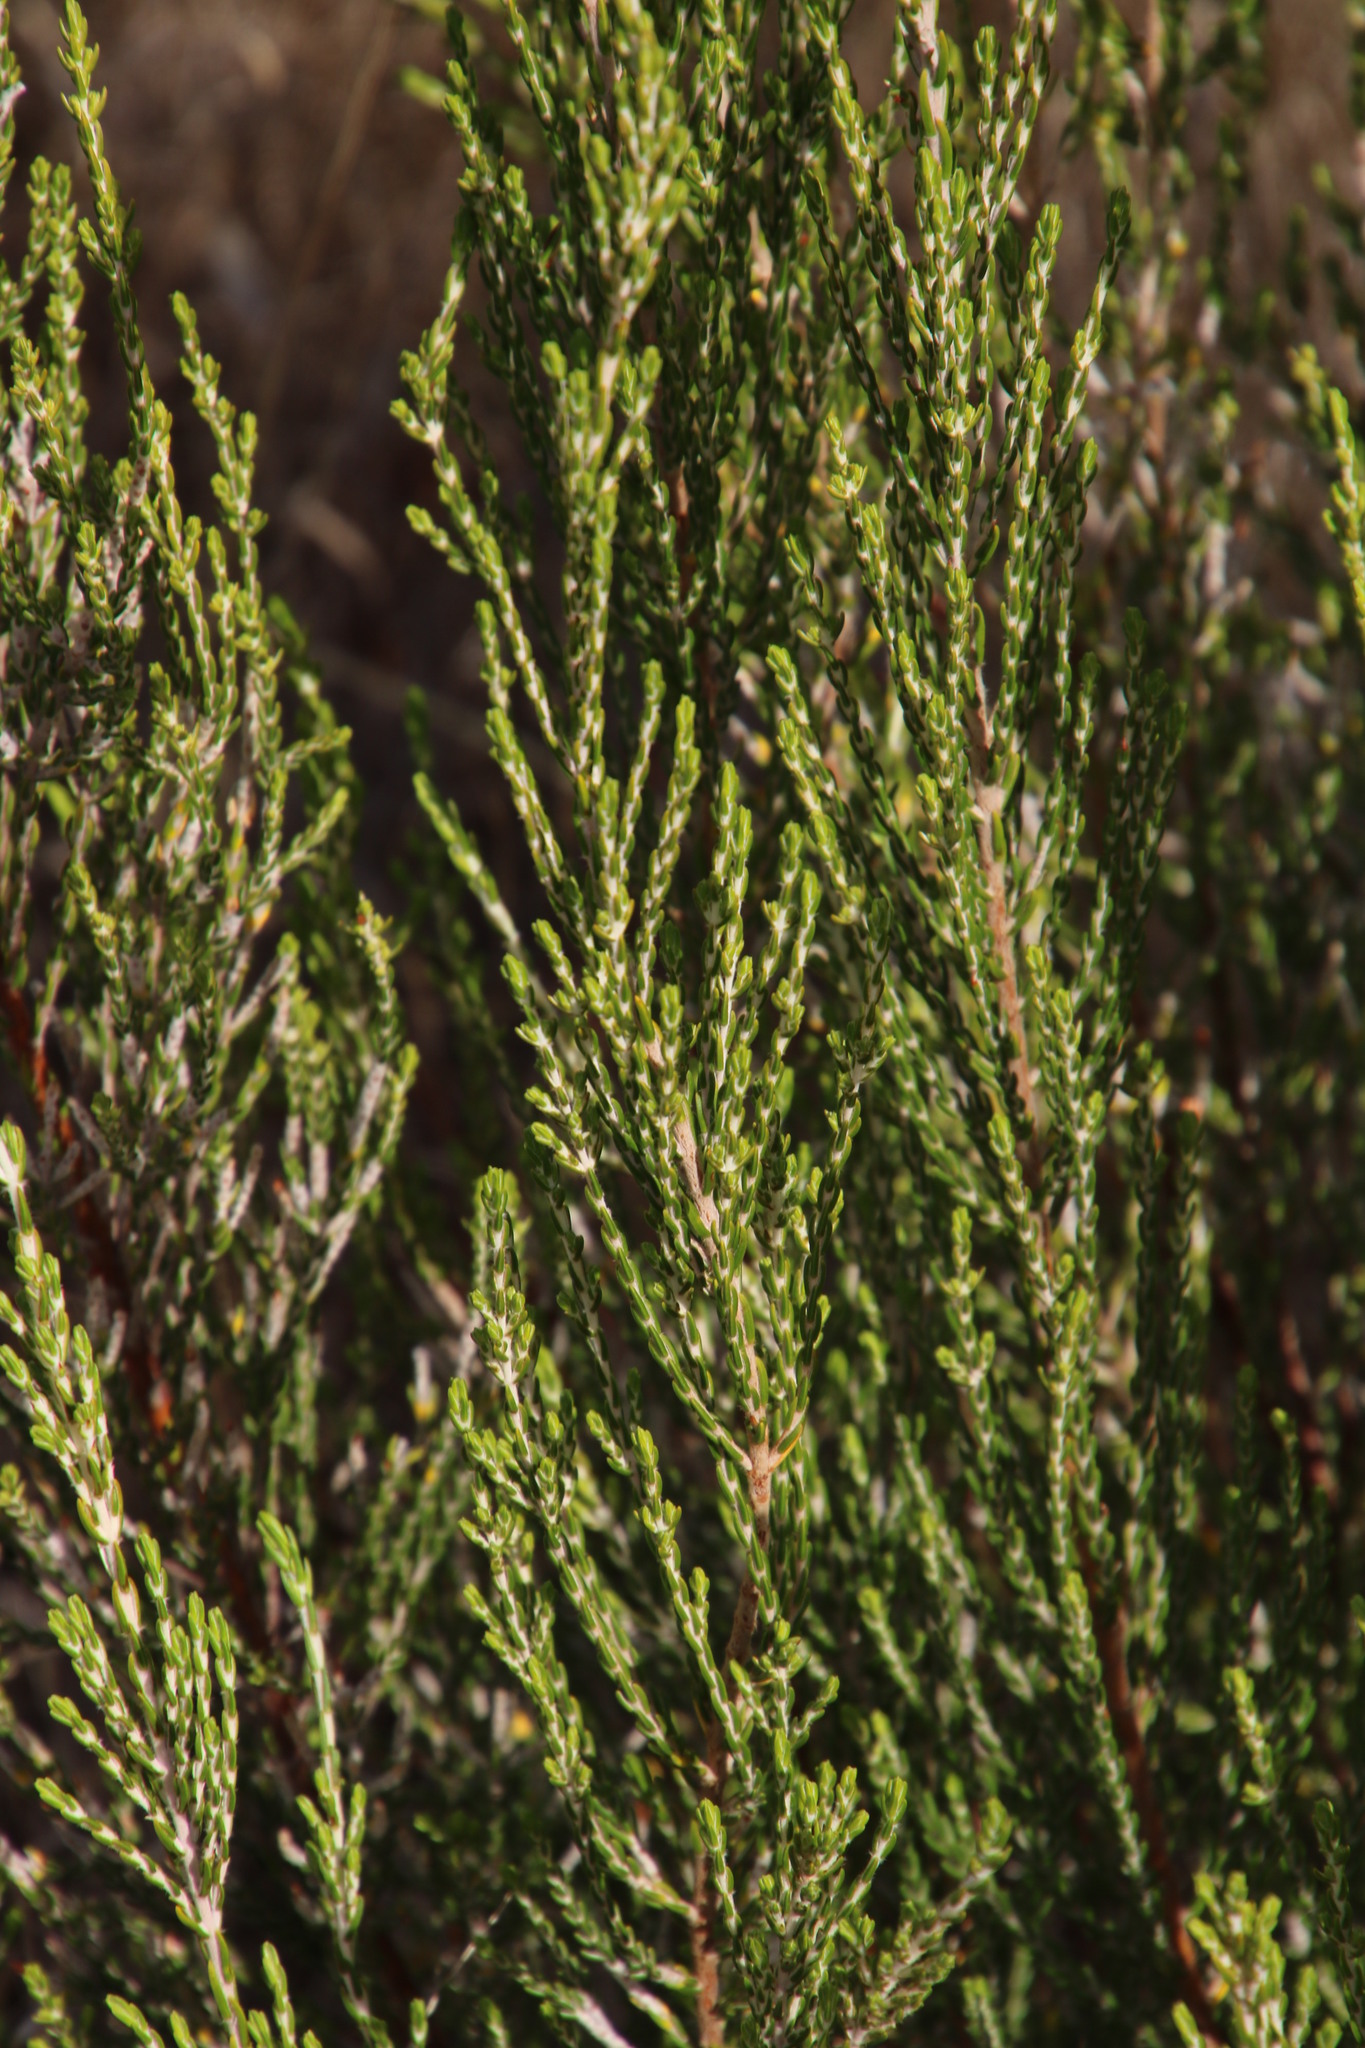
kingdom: Plantae
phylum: Tracheophyta
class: Magnoliopsida
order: Malvales
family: Thymelaeaceae
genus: Passerina
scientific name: Passerina corymbosa
